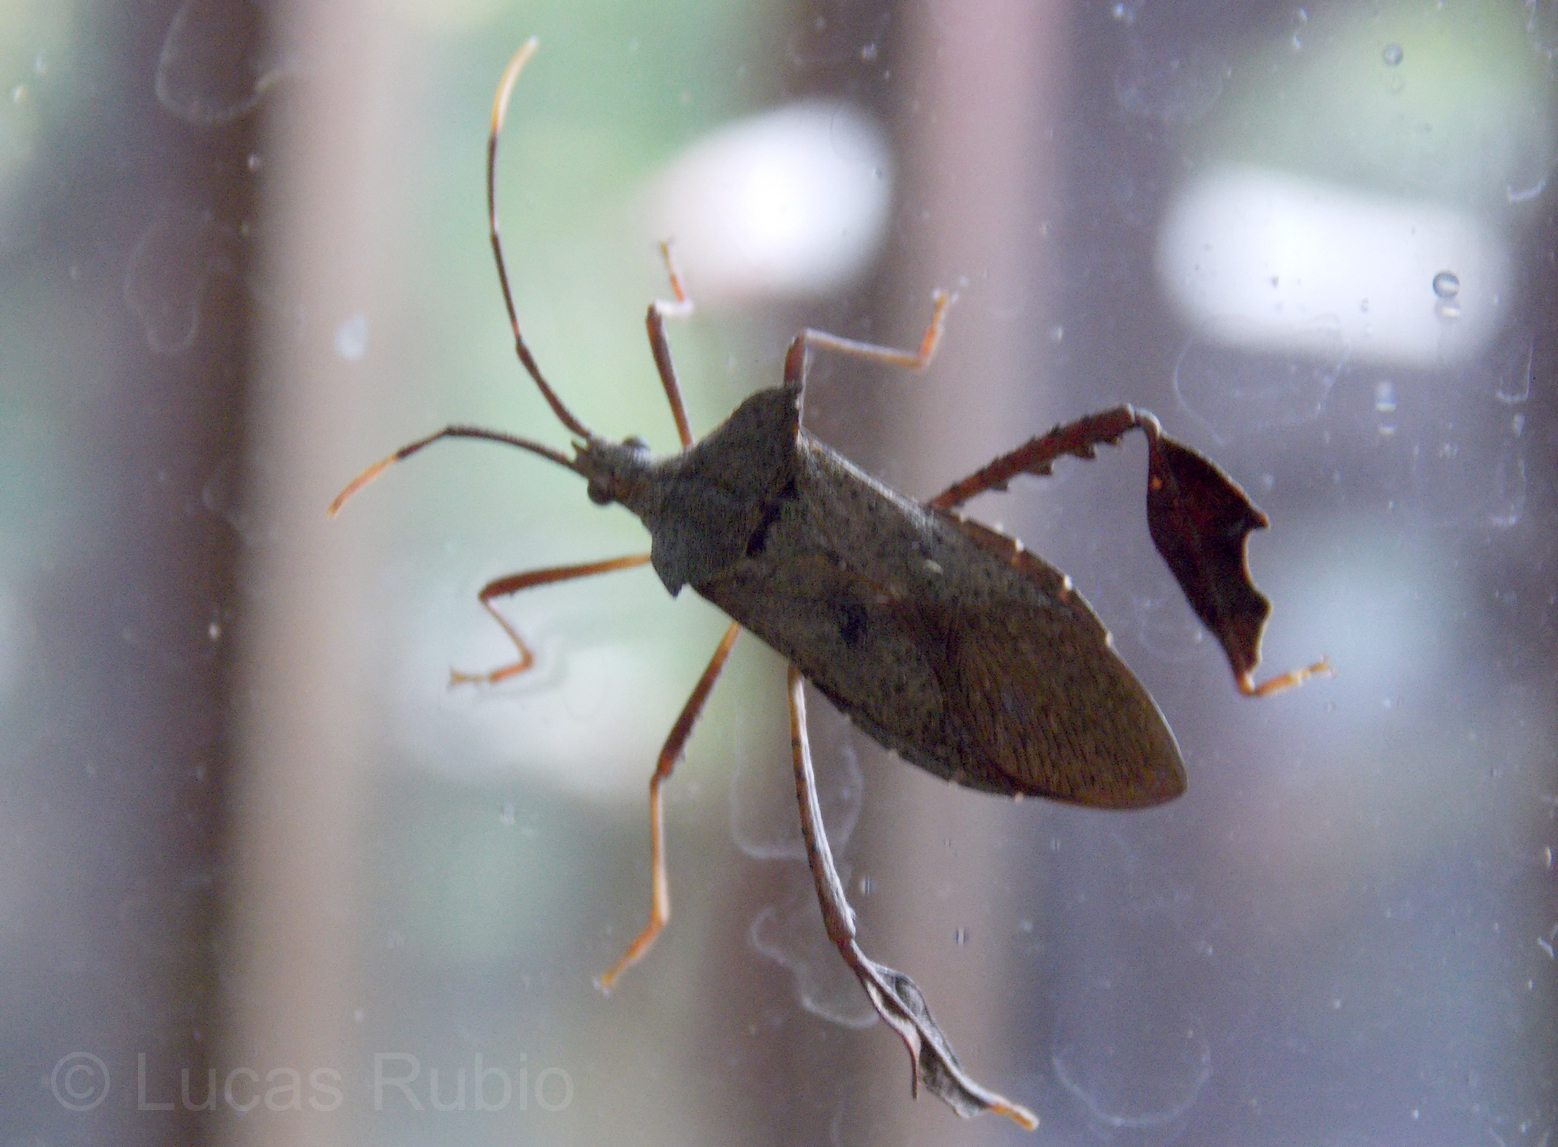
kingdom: Animalia
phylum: Arthropoda
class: Insecta
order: Hemiptera
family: Coreidae
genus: Empedocles
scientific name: Empedocles luridus
